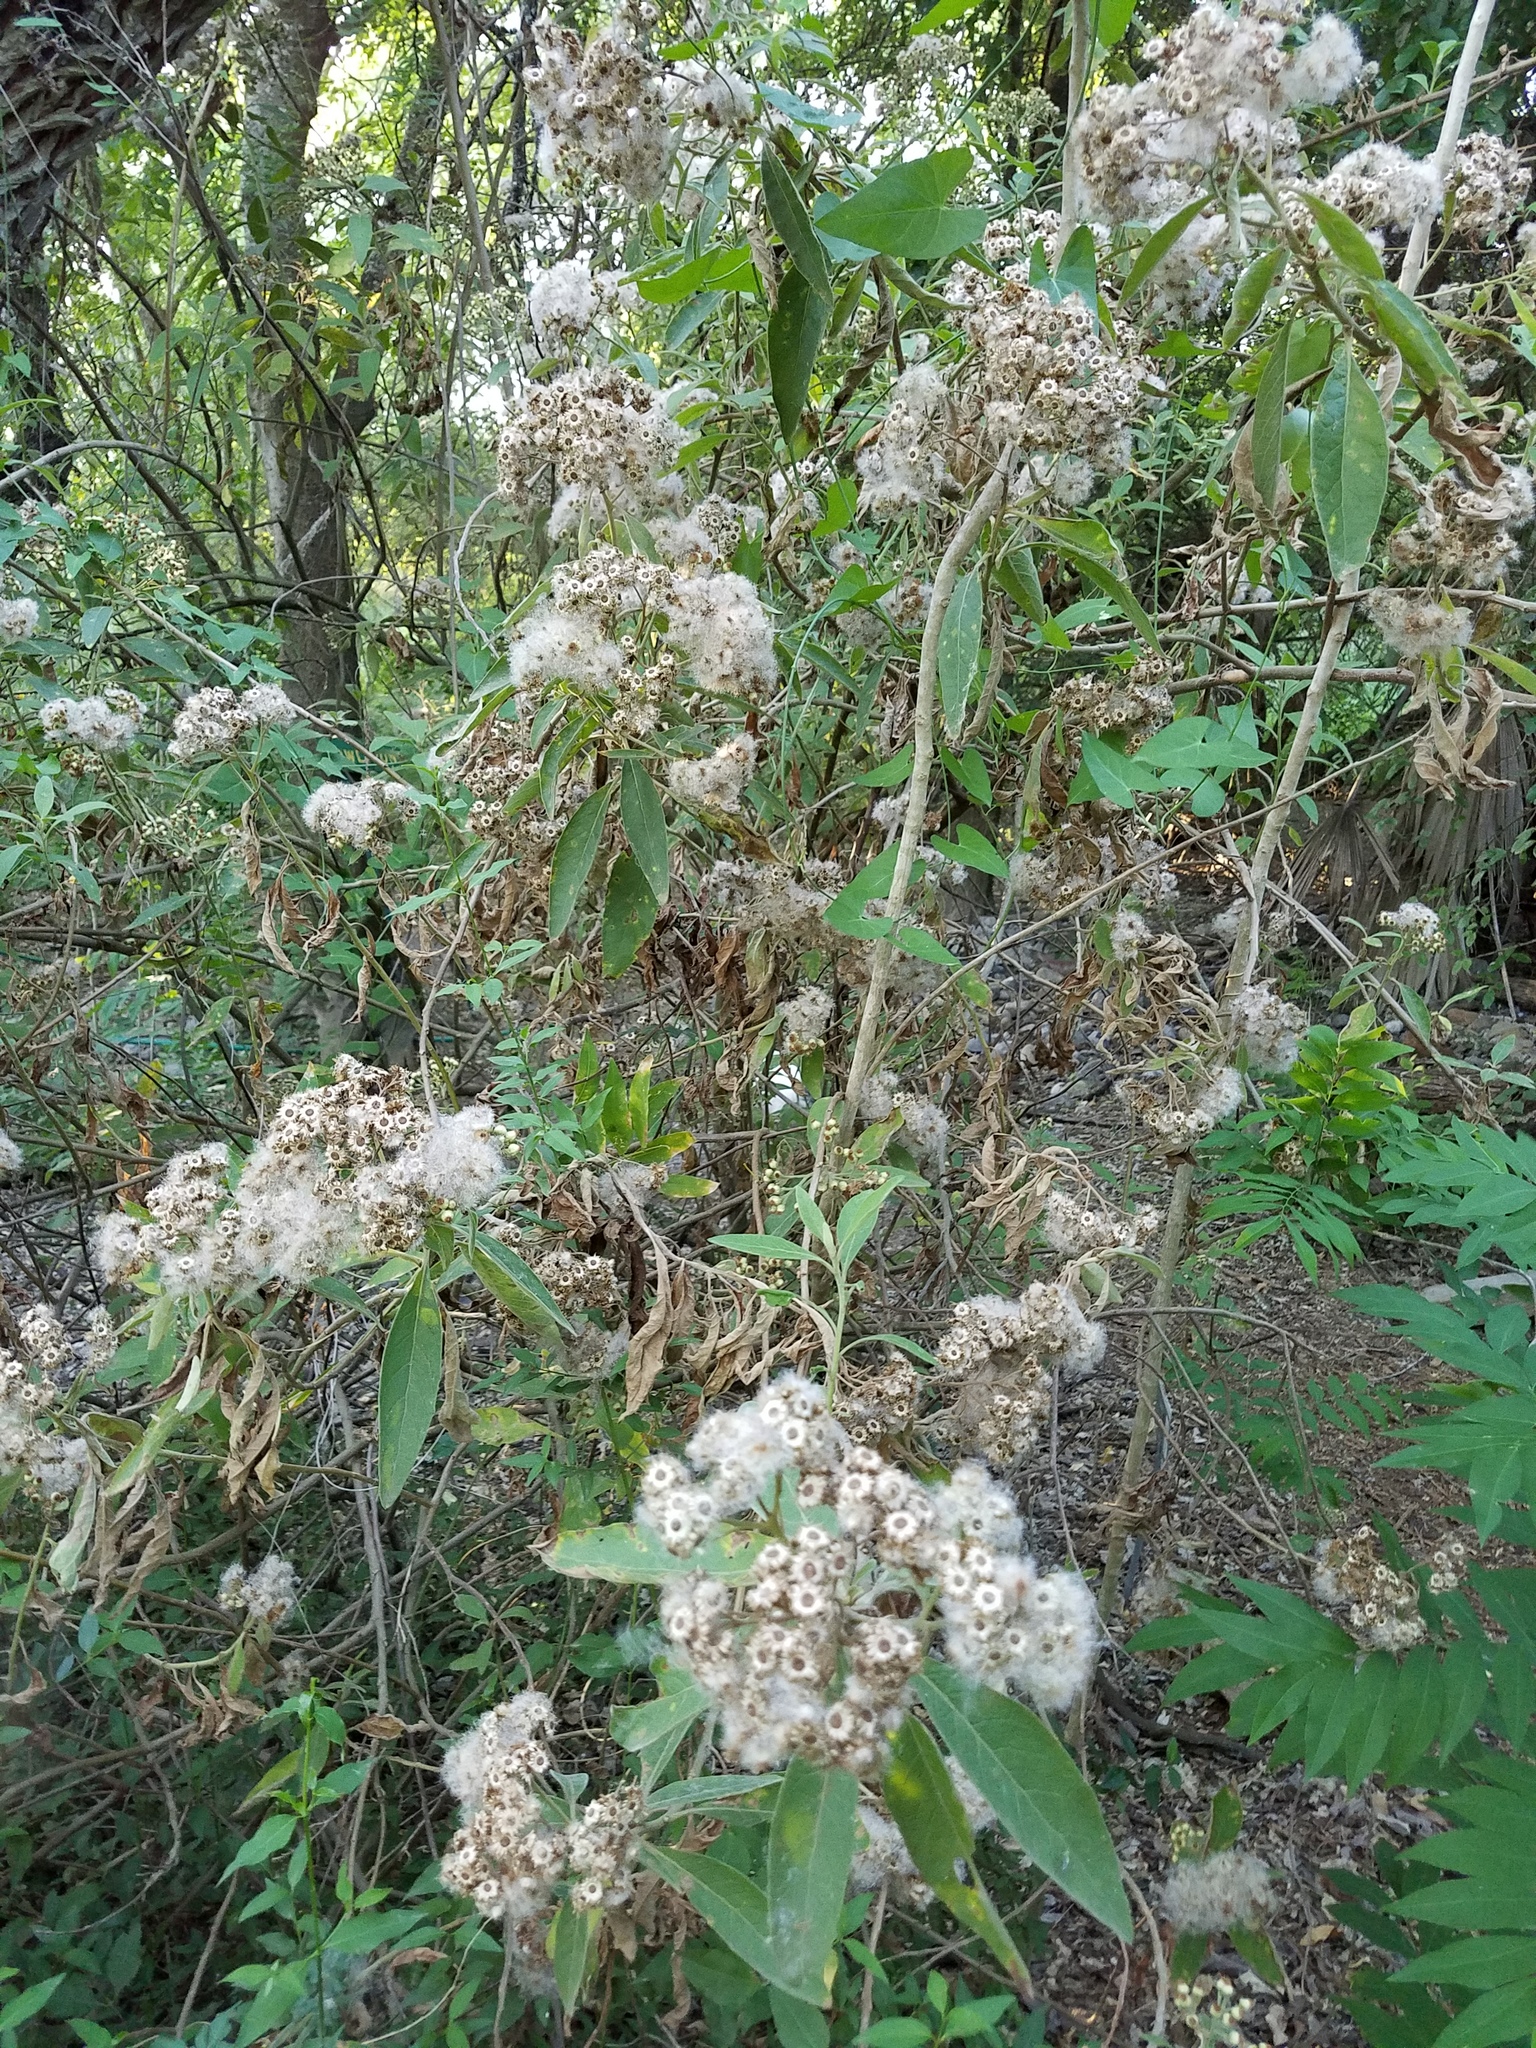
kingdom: Plantae
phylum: Tracheophyta
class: Magnoliopsida
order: Asterales
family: Asteraceae
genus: Pluchea
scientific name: Pluchea carolinensis
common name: Marsh fleabane
